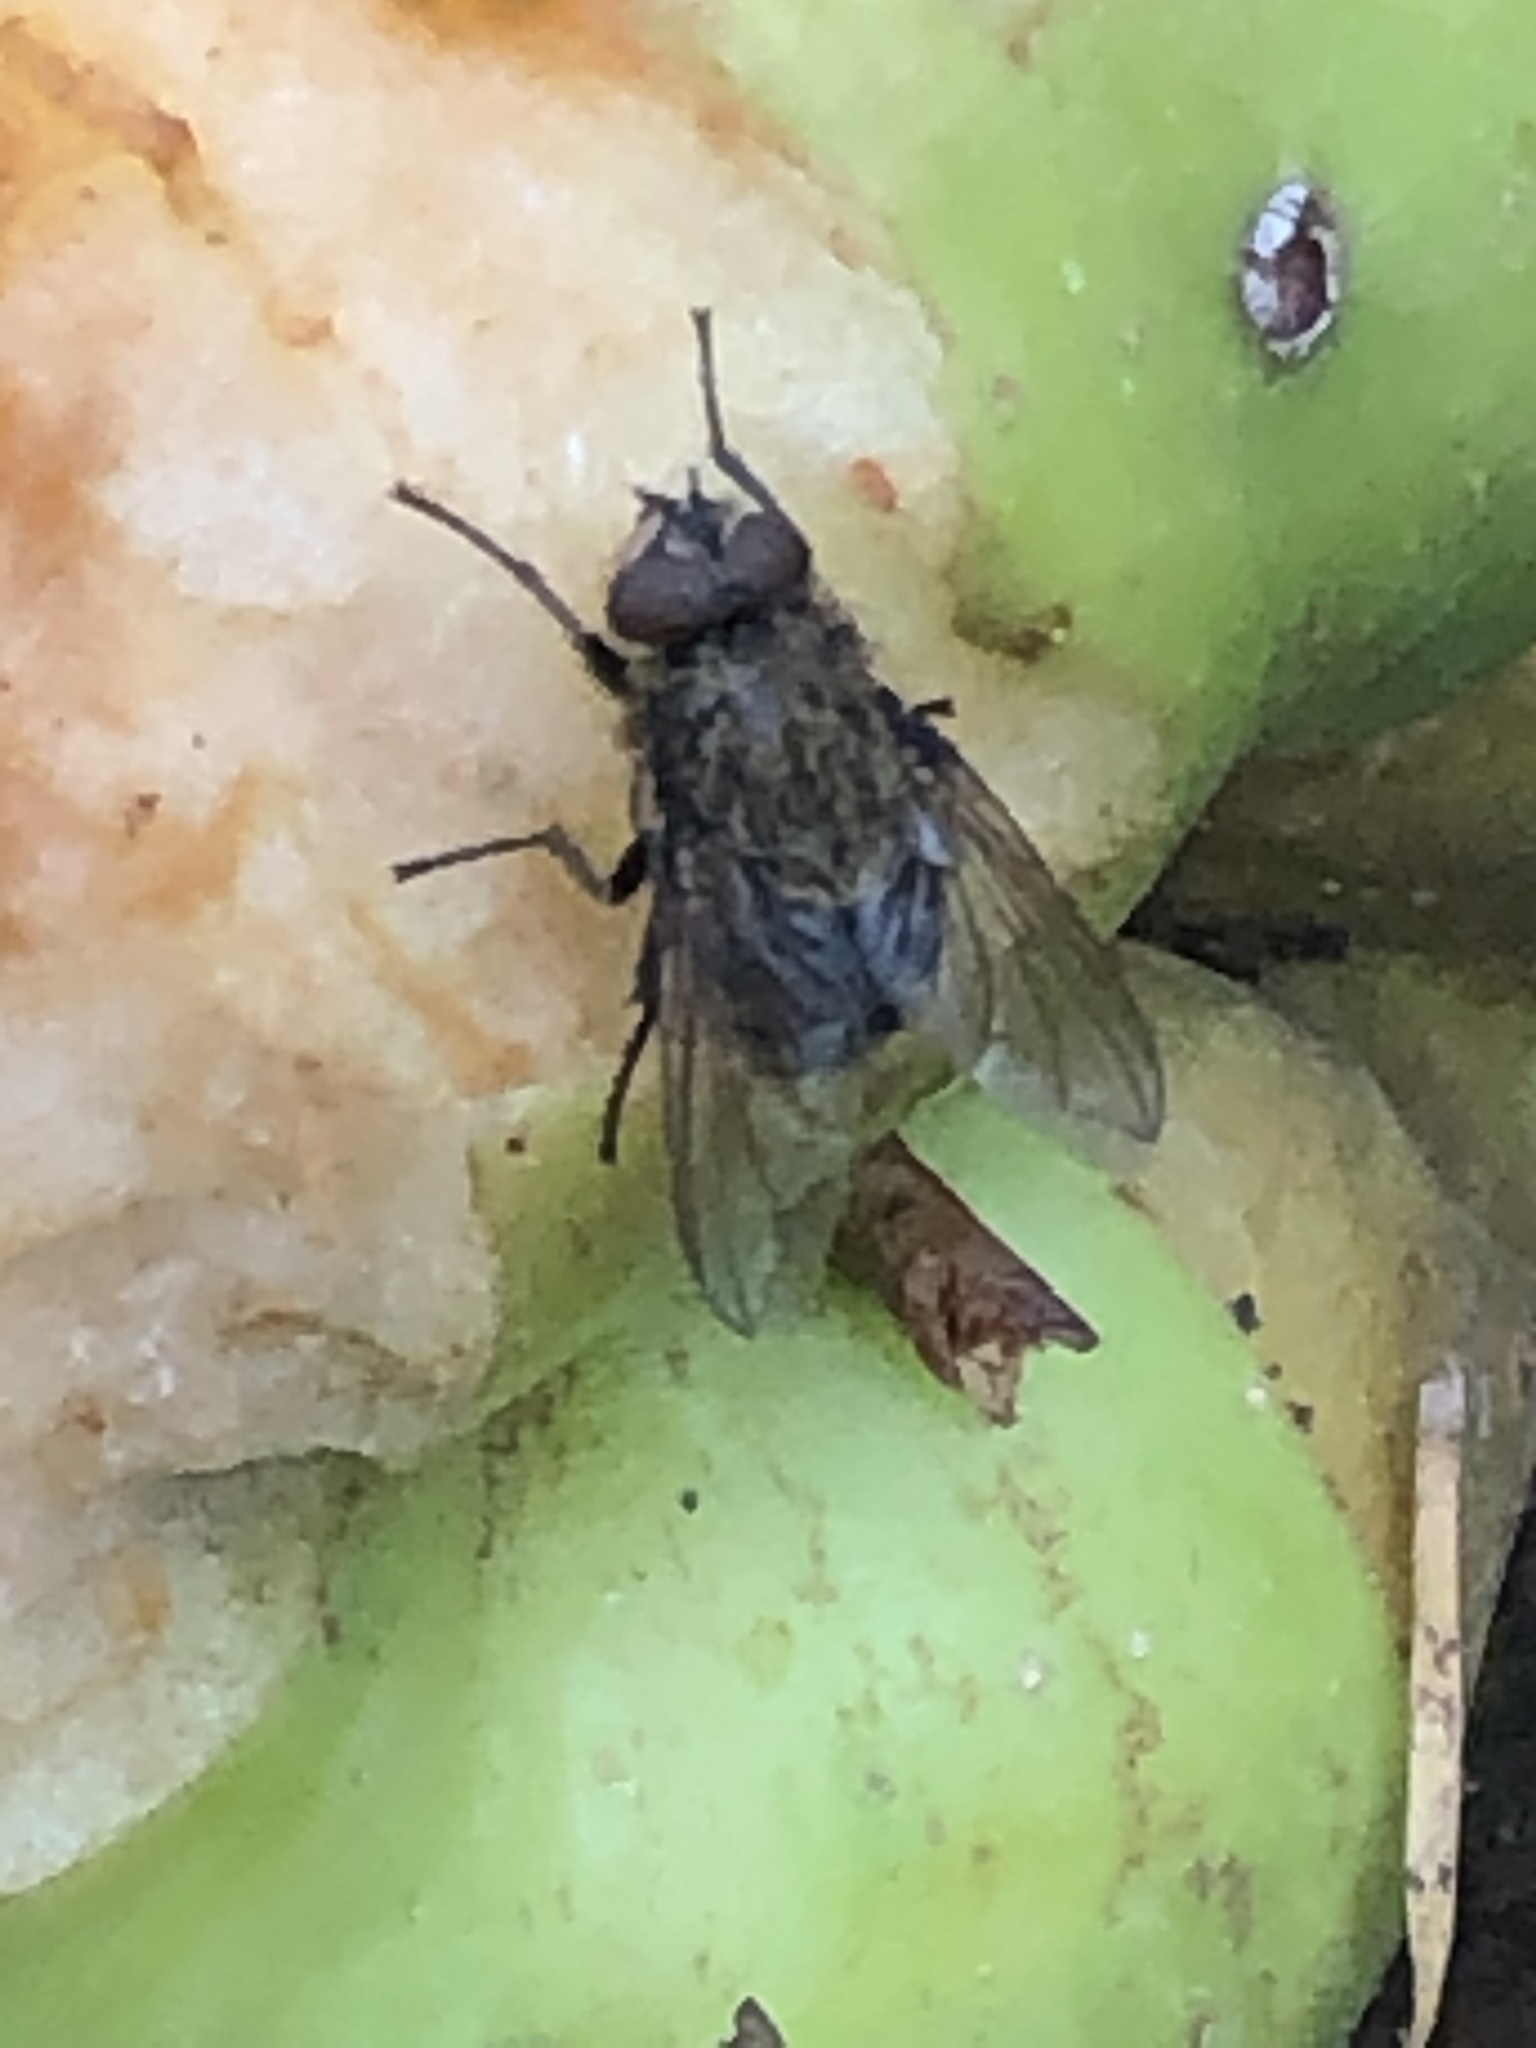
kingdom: Animalia
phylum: Arthropoda
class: Insecta
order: Diptera
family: Polleniidae
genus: Pollenia
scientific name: Pollenia
